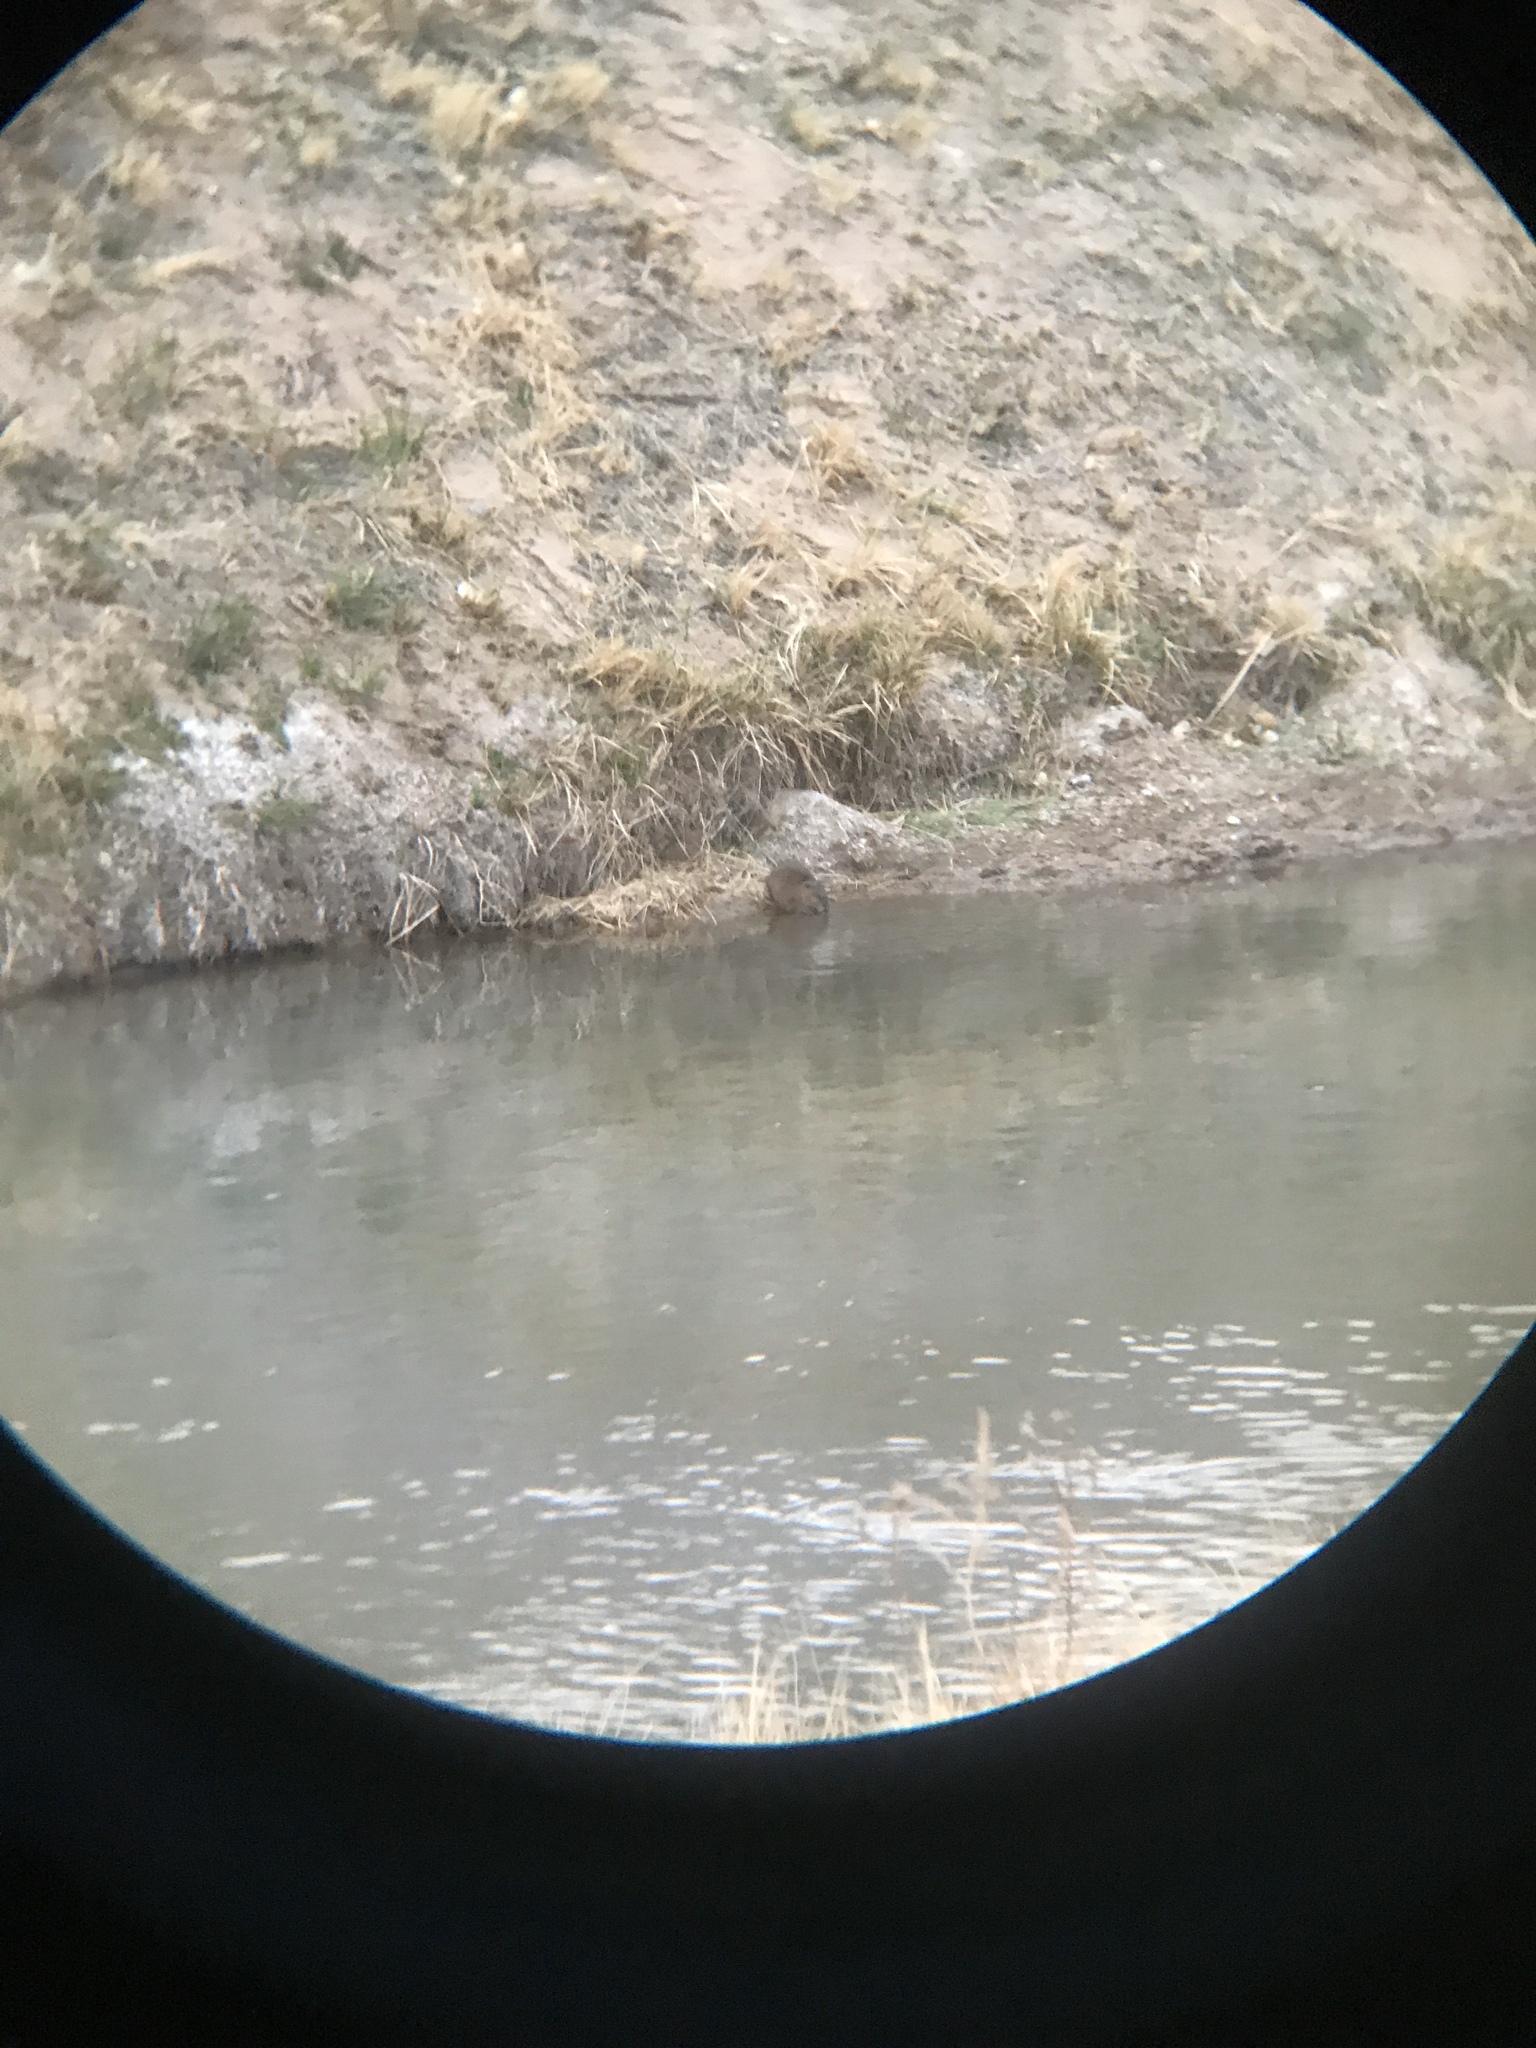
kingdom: Animalia
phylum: Chordata
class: Mammalia
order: Rodentia
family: Cricetidae
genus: Ondatra
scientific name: Ondatra zibethicus
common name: Muskrat
